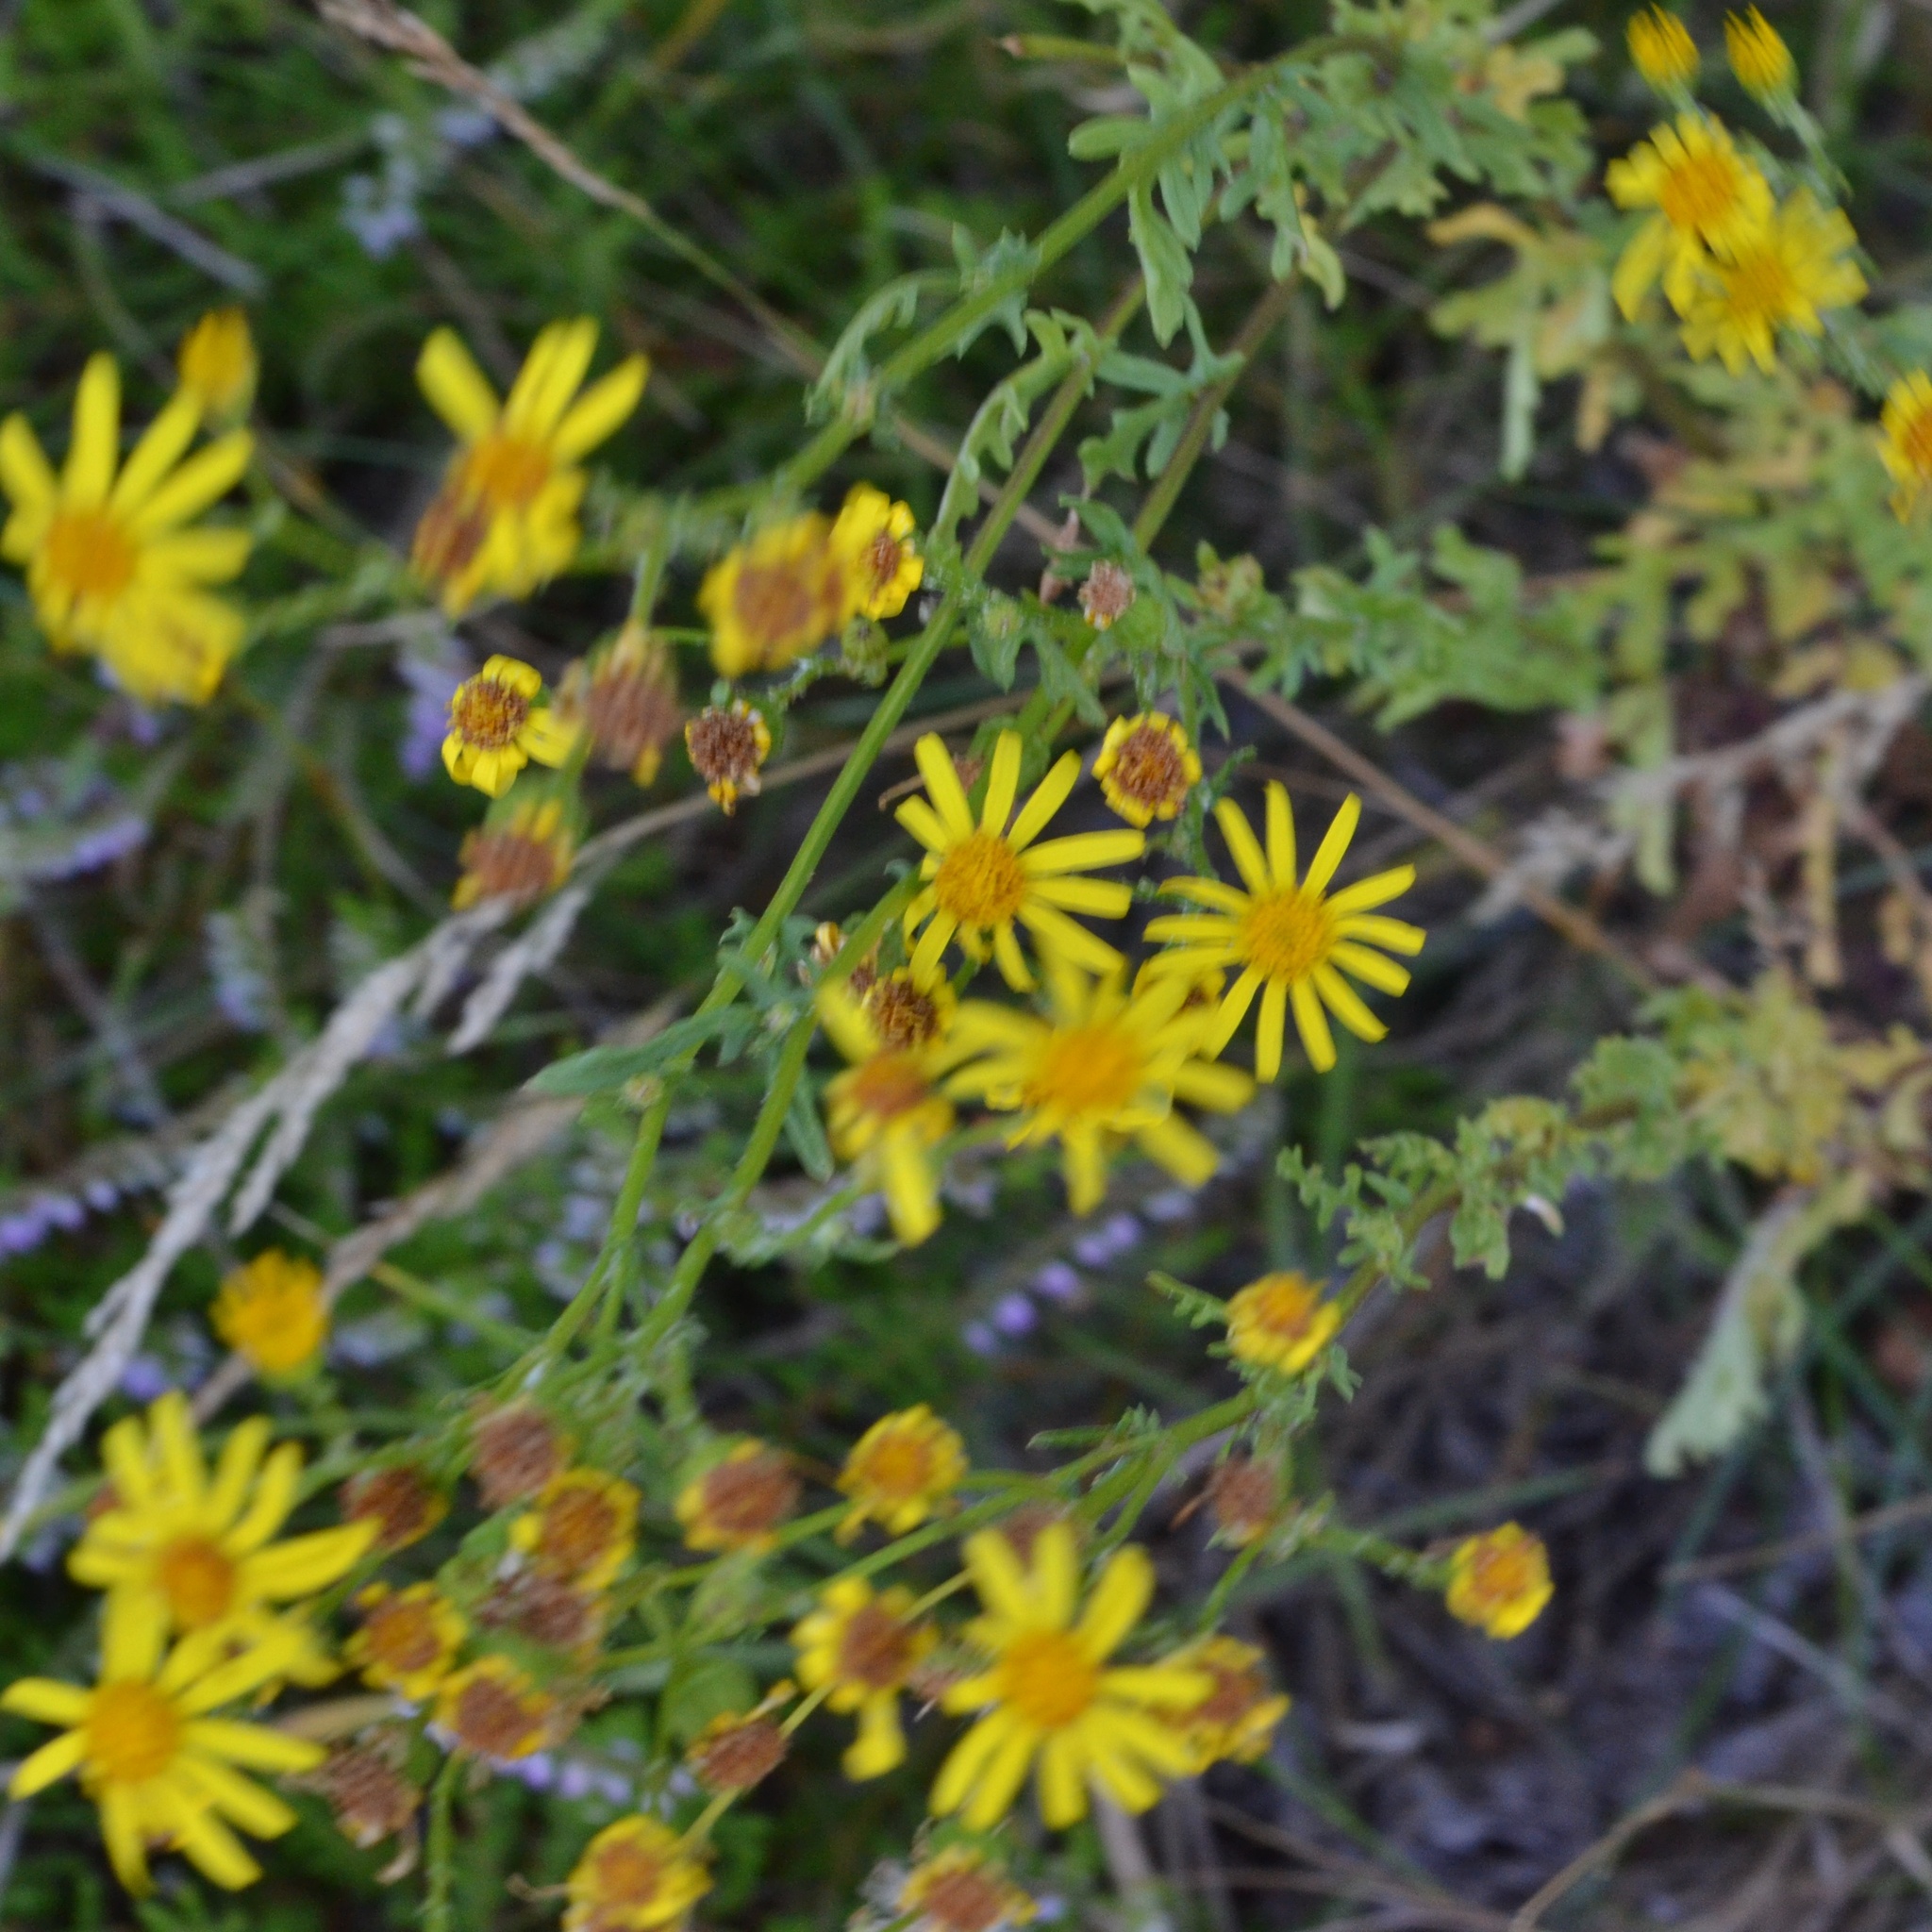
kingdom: Plantae
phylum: Tracheophyta
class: Magnoliopsida
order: Asterales
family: Asteraceae
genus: Jacobaea
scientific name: Jacobaea vulgaris
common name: Stinking willie
